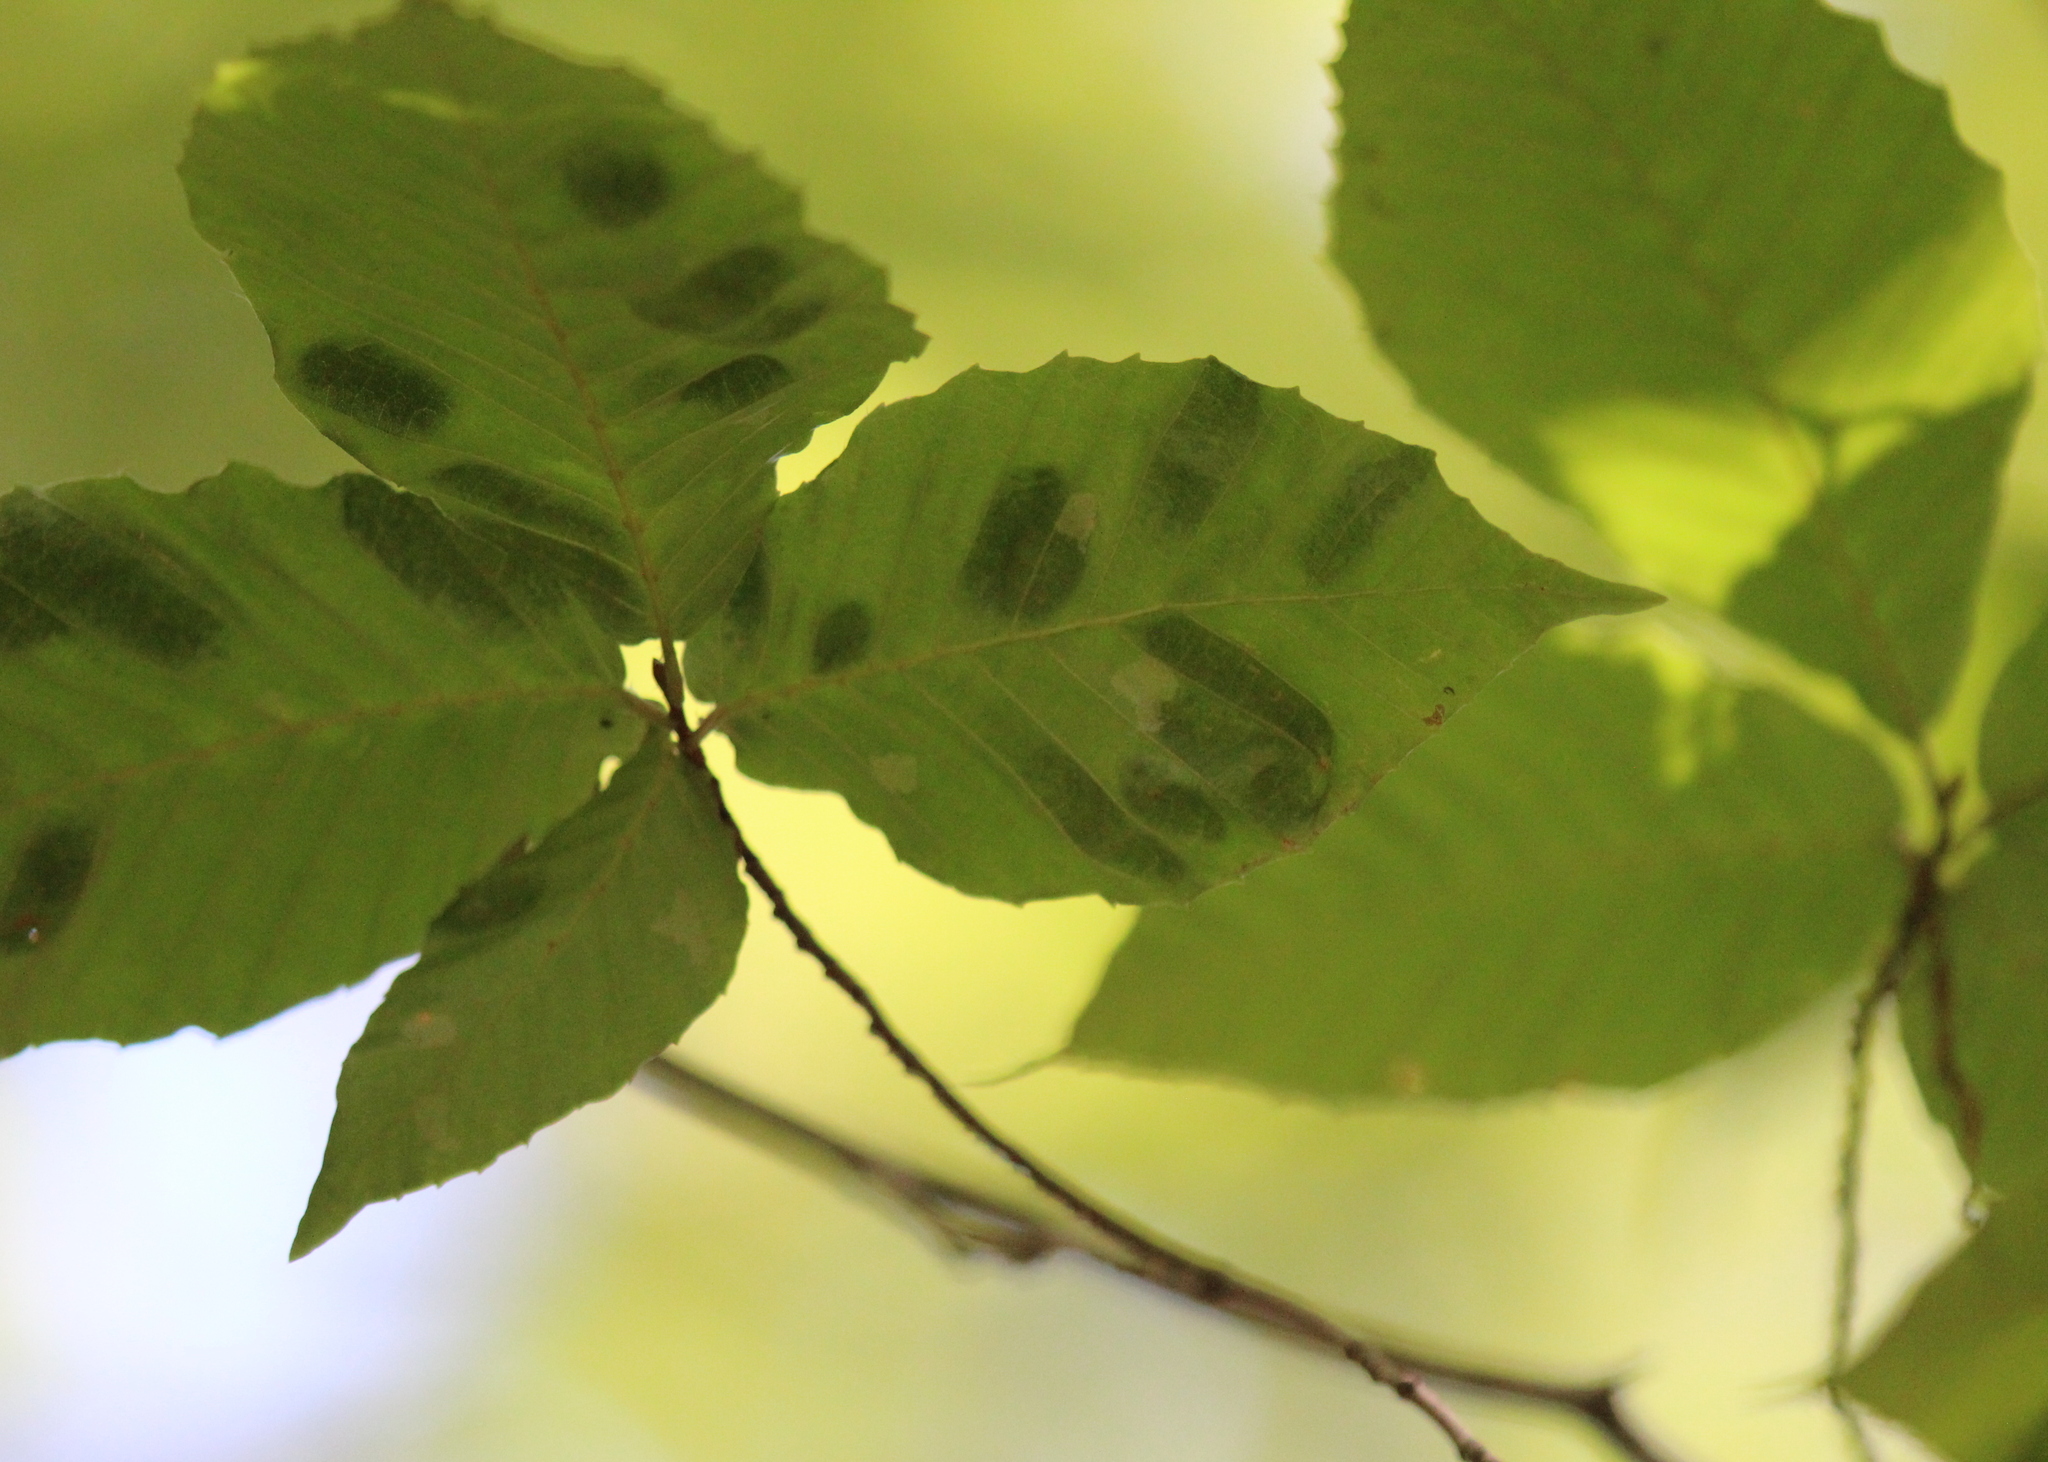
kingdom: Animalia
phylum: Nematoda
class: Chromadorea
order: Rhabditida
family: Anguinidae
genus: Litylenchus
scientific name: Litylenchus crenatae
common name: Beech leaf disease
